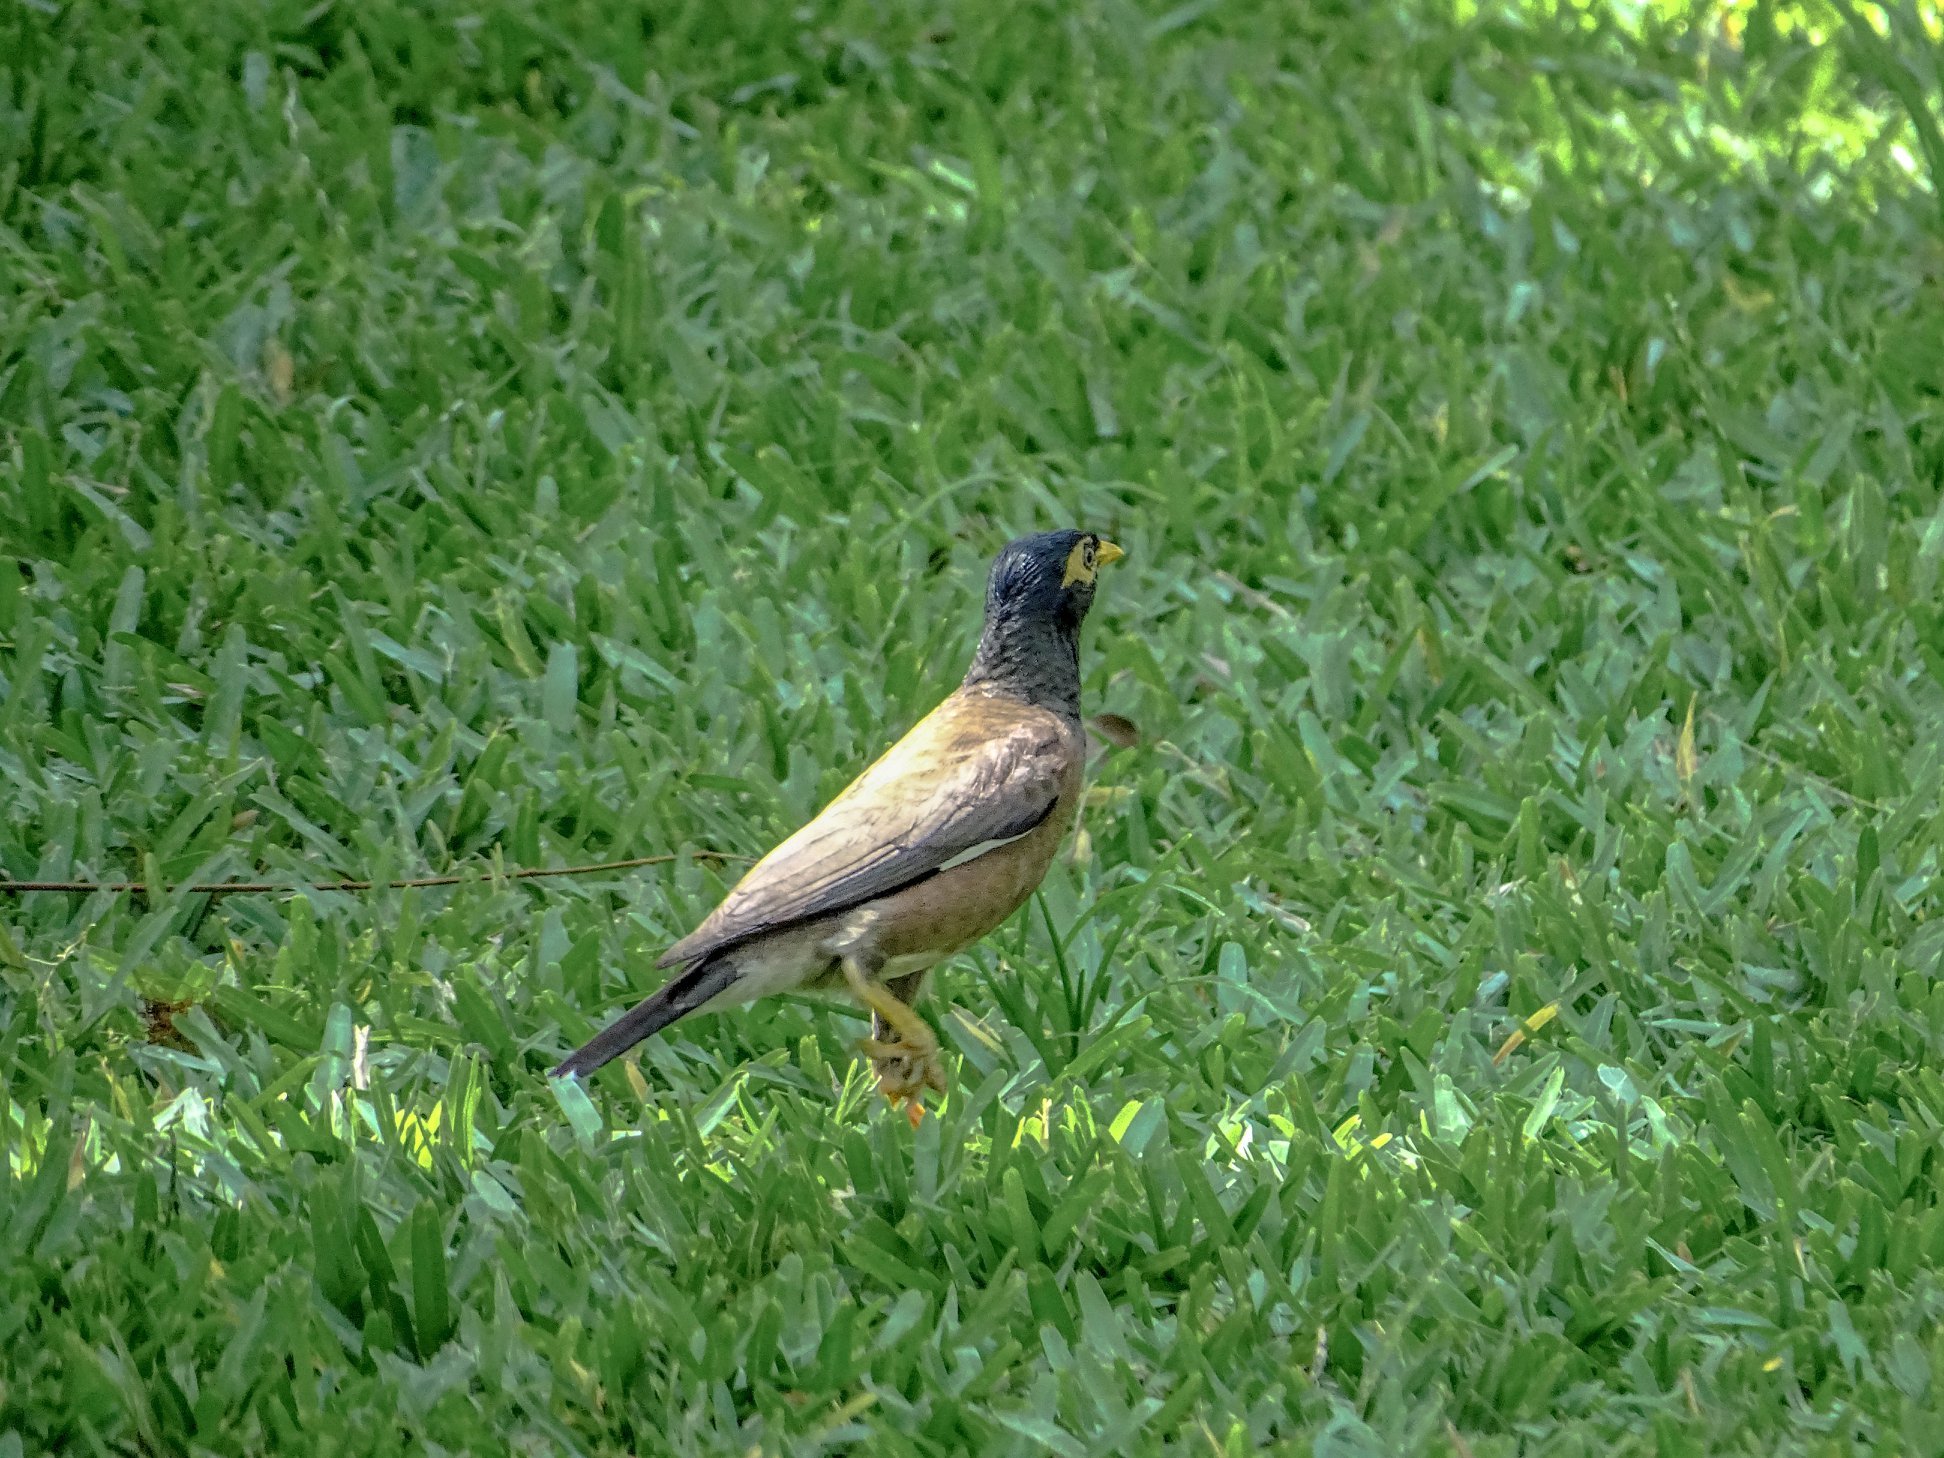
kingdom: Animalia
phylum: Chordata
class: Aves
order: Passeriformes
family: Sturnidae
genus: Acridotheres
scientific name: Acridotheres tristis
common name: Common myna
